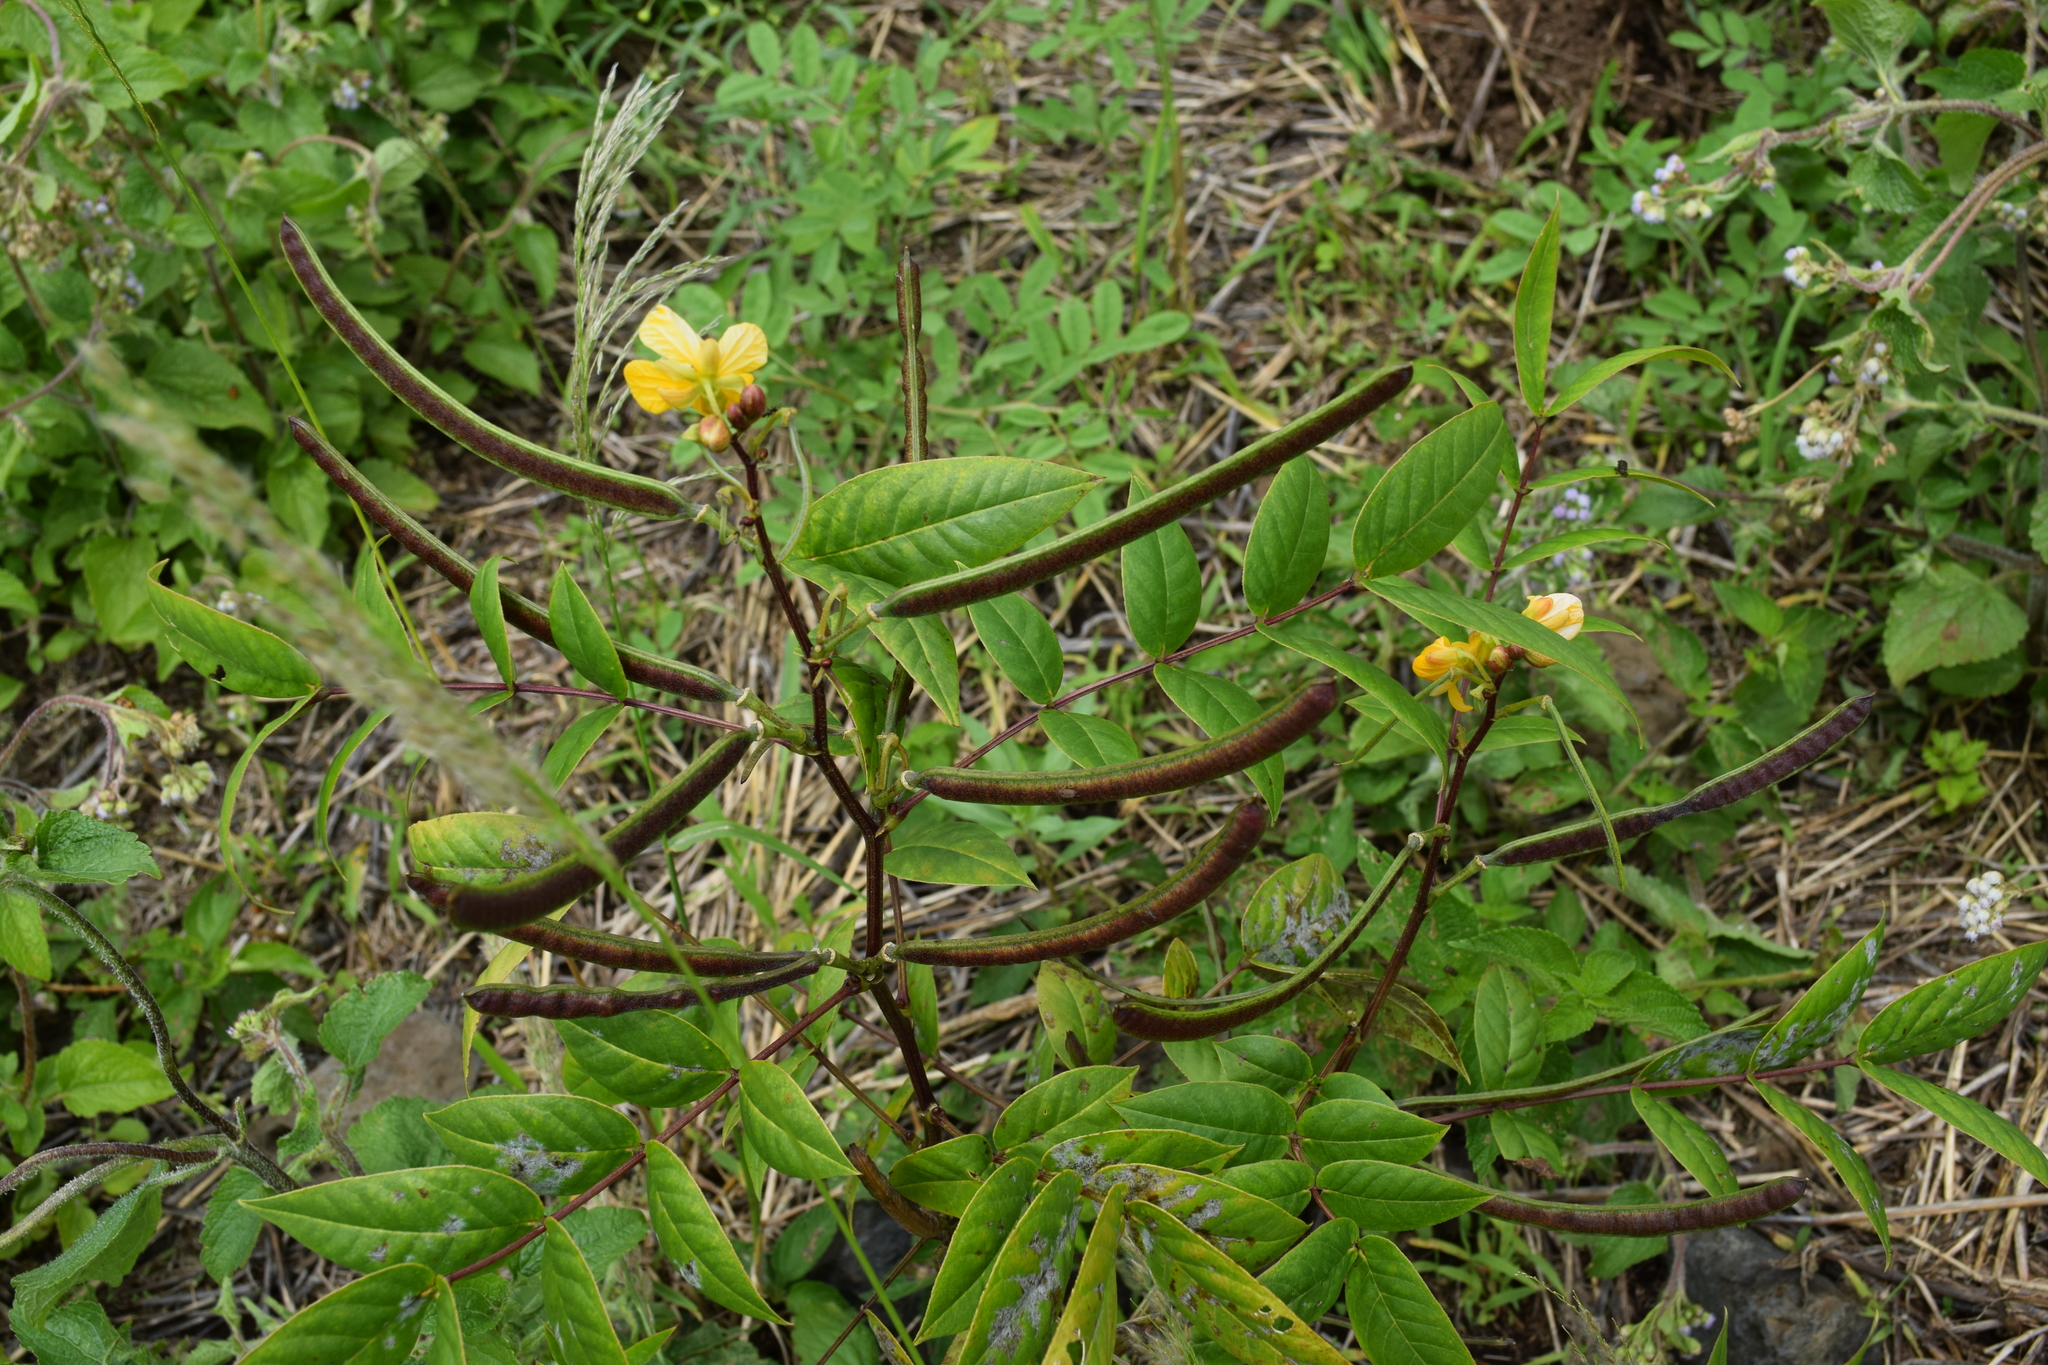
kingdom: Plantae
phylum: Tracheophyta
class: Magnoliopsida
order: Fabales
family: Fabaceae
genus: Senna
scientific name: Senna occidentalis
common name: Septicweed
